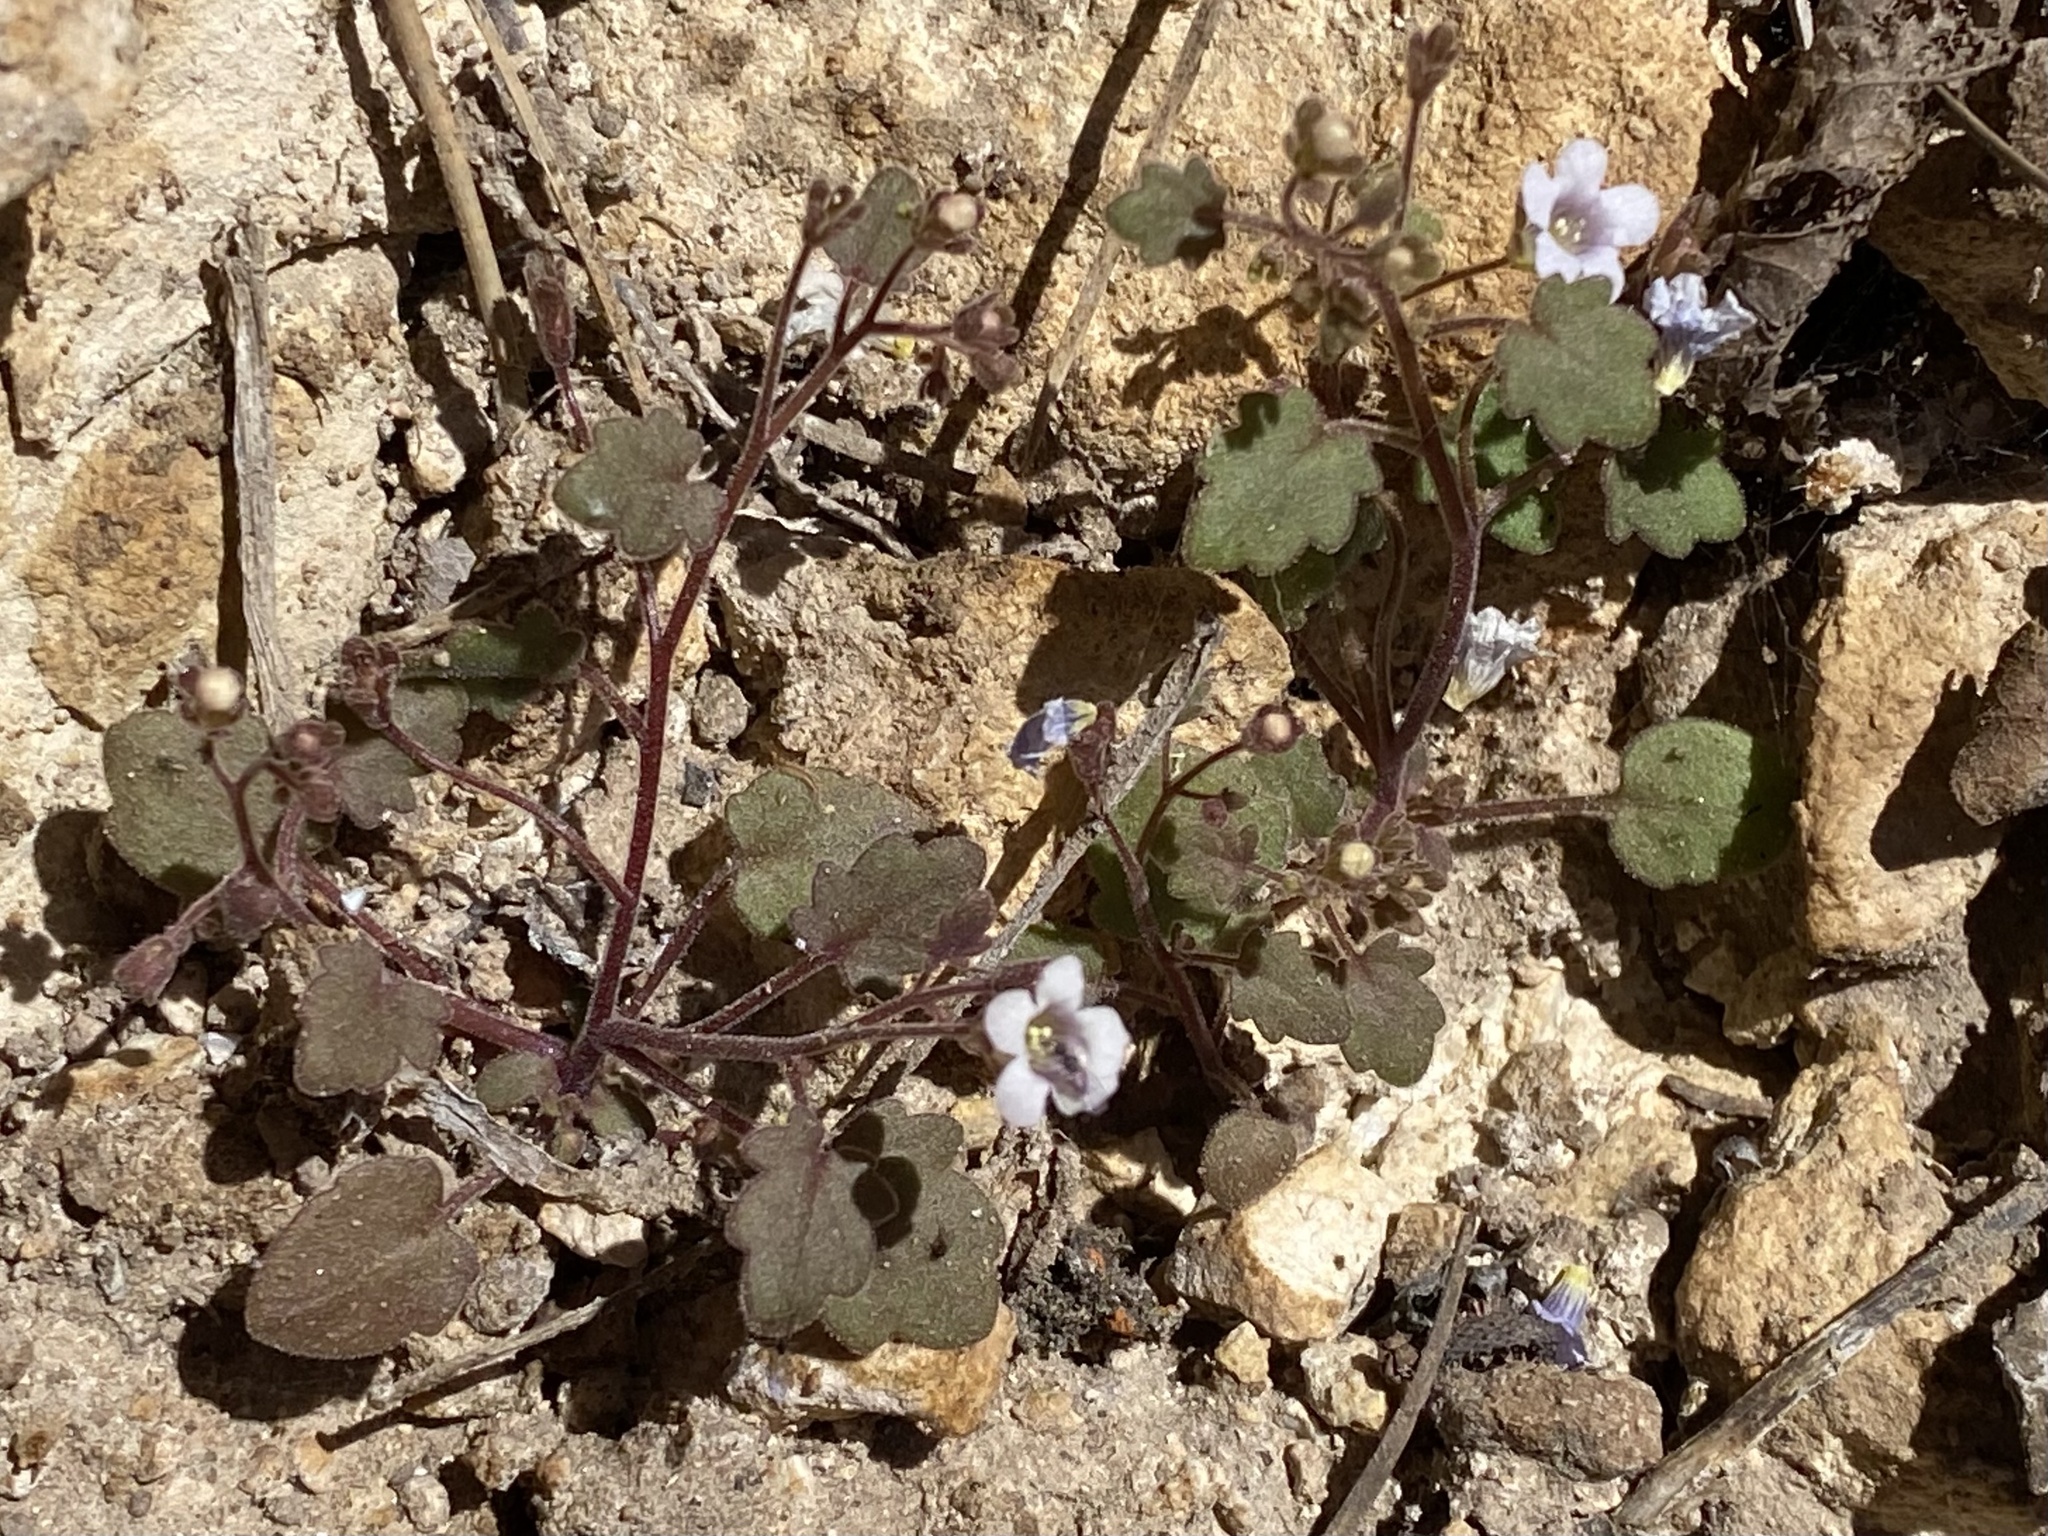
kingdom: Plantae
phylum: Tracheophyta
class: Magnoliopsida
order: Boraginales
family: Hydrophyllaceae
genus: Phacelia
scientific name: Phacelia filiformis
